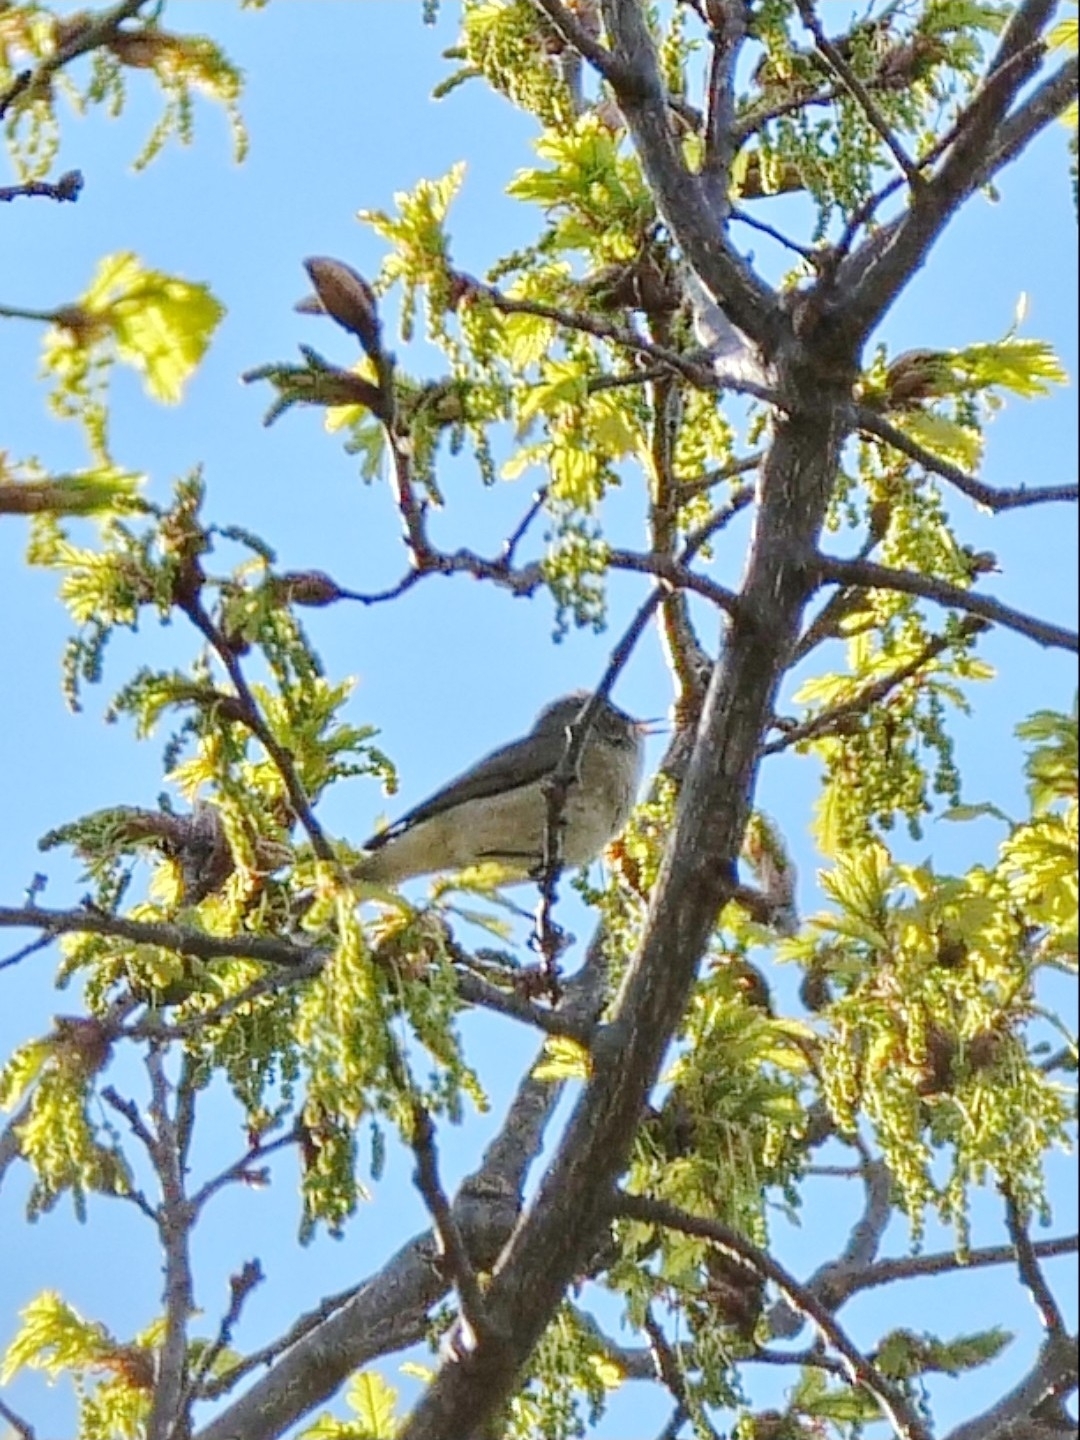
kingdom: Animalia
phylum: Chordata
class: Aves
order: Passeriformes
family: Phylloscopidae
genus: Phylloscopus
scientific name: Phylloscopus collybita
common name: Common chiffchaff
